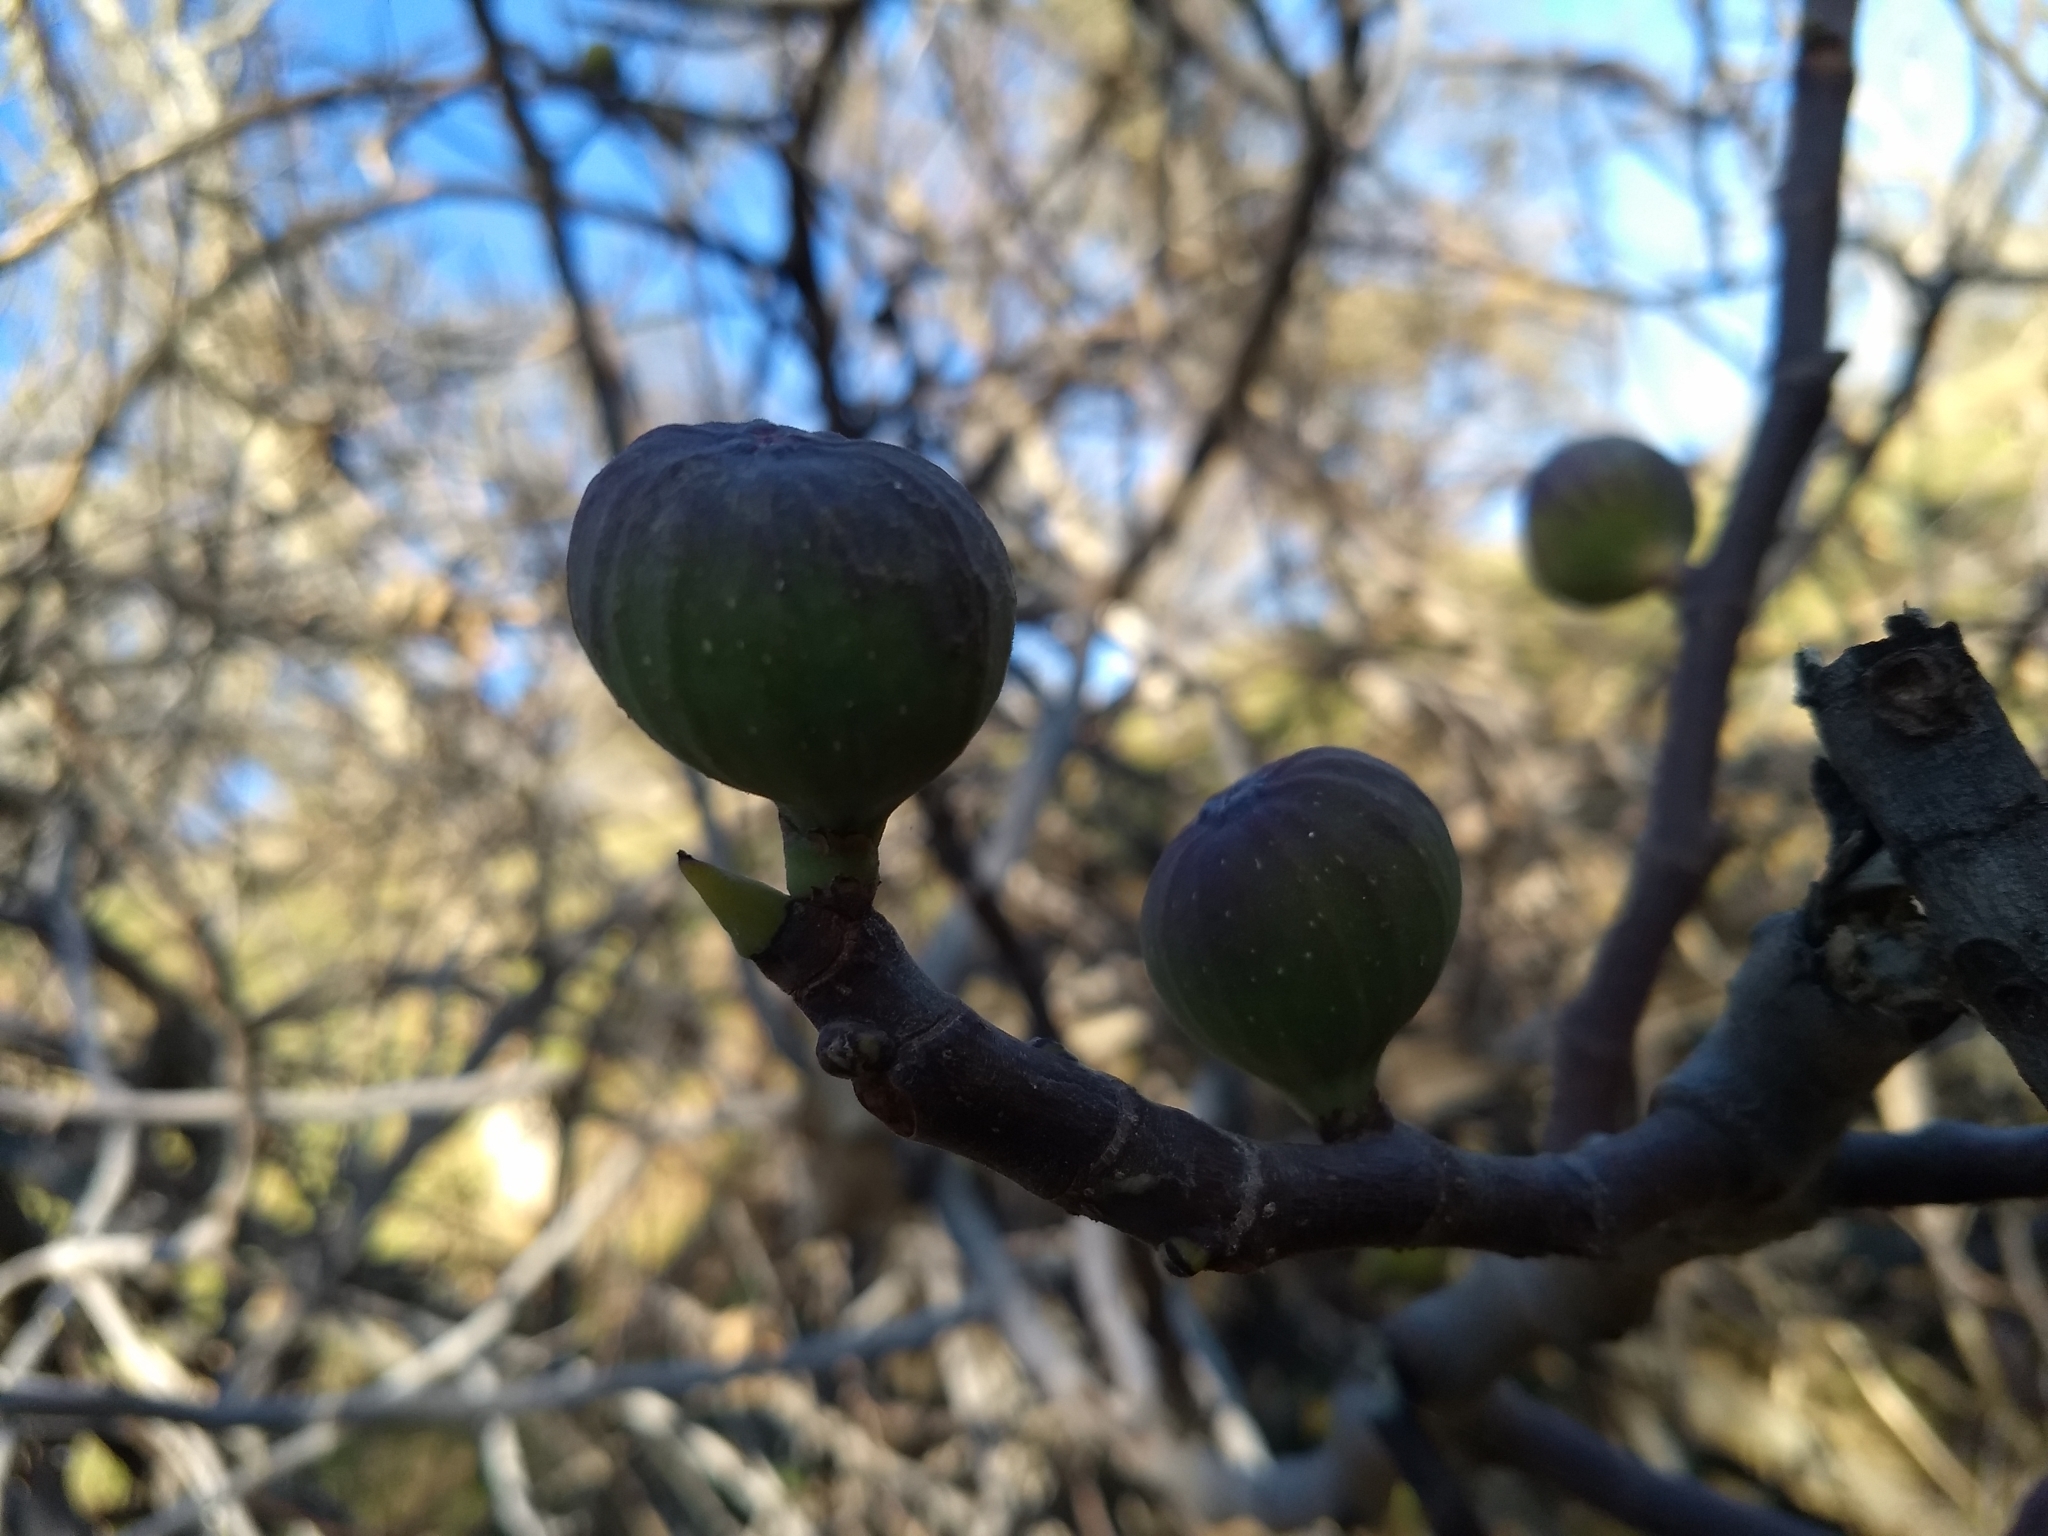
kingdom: Plantae
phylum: Tracheophyta
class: Magnoliopsida
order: Rosales
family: Moraceae
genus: Ficus
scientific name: Ficus carica
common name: Fig
